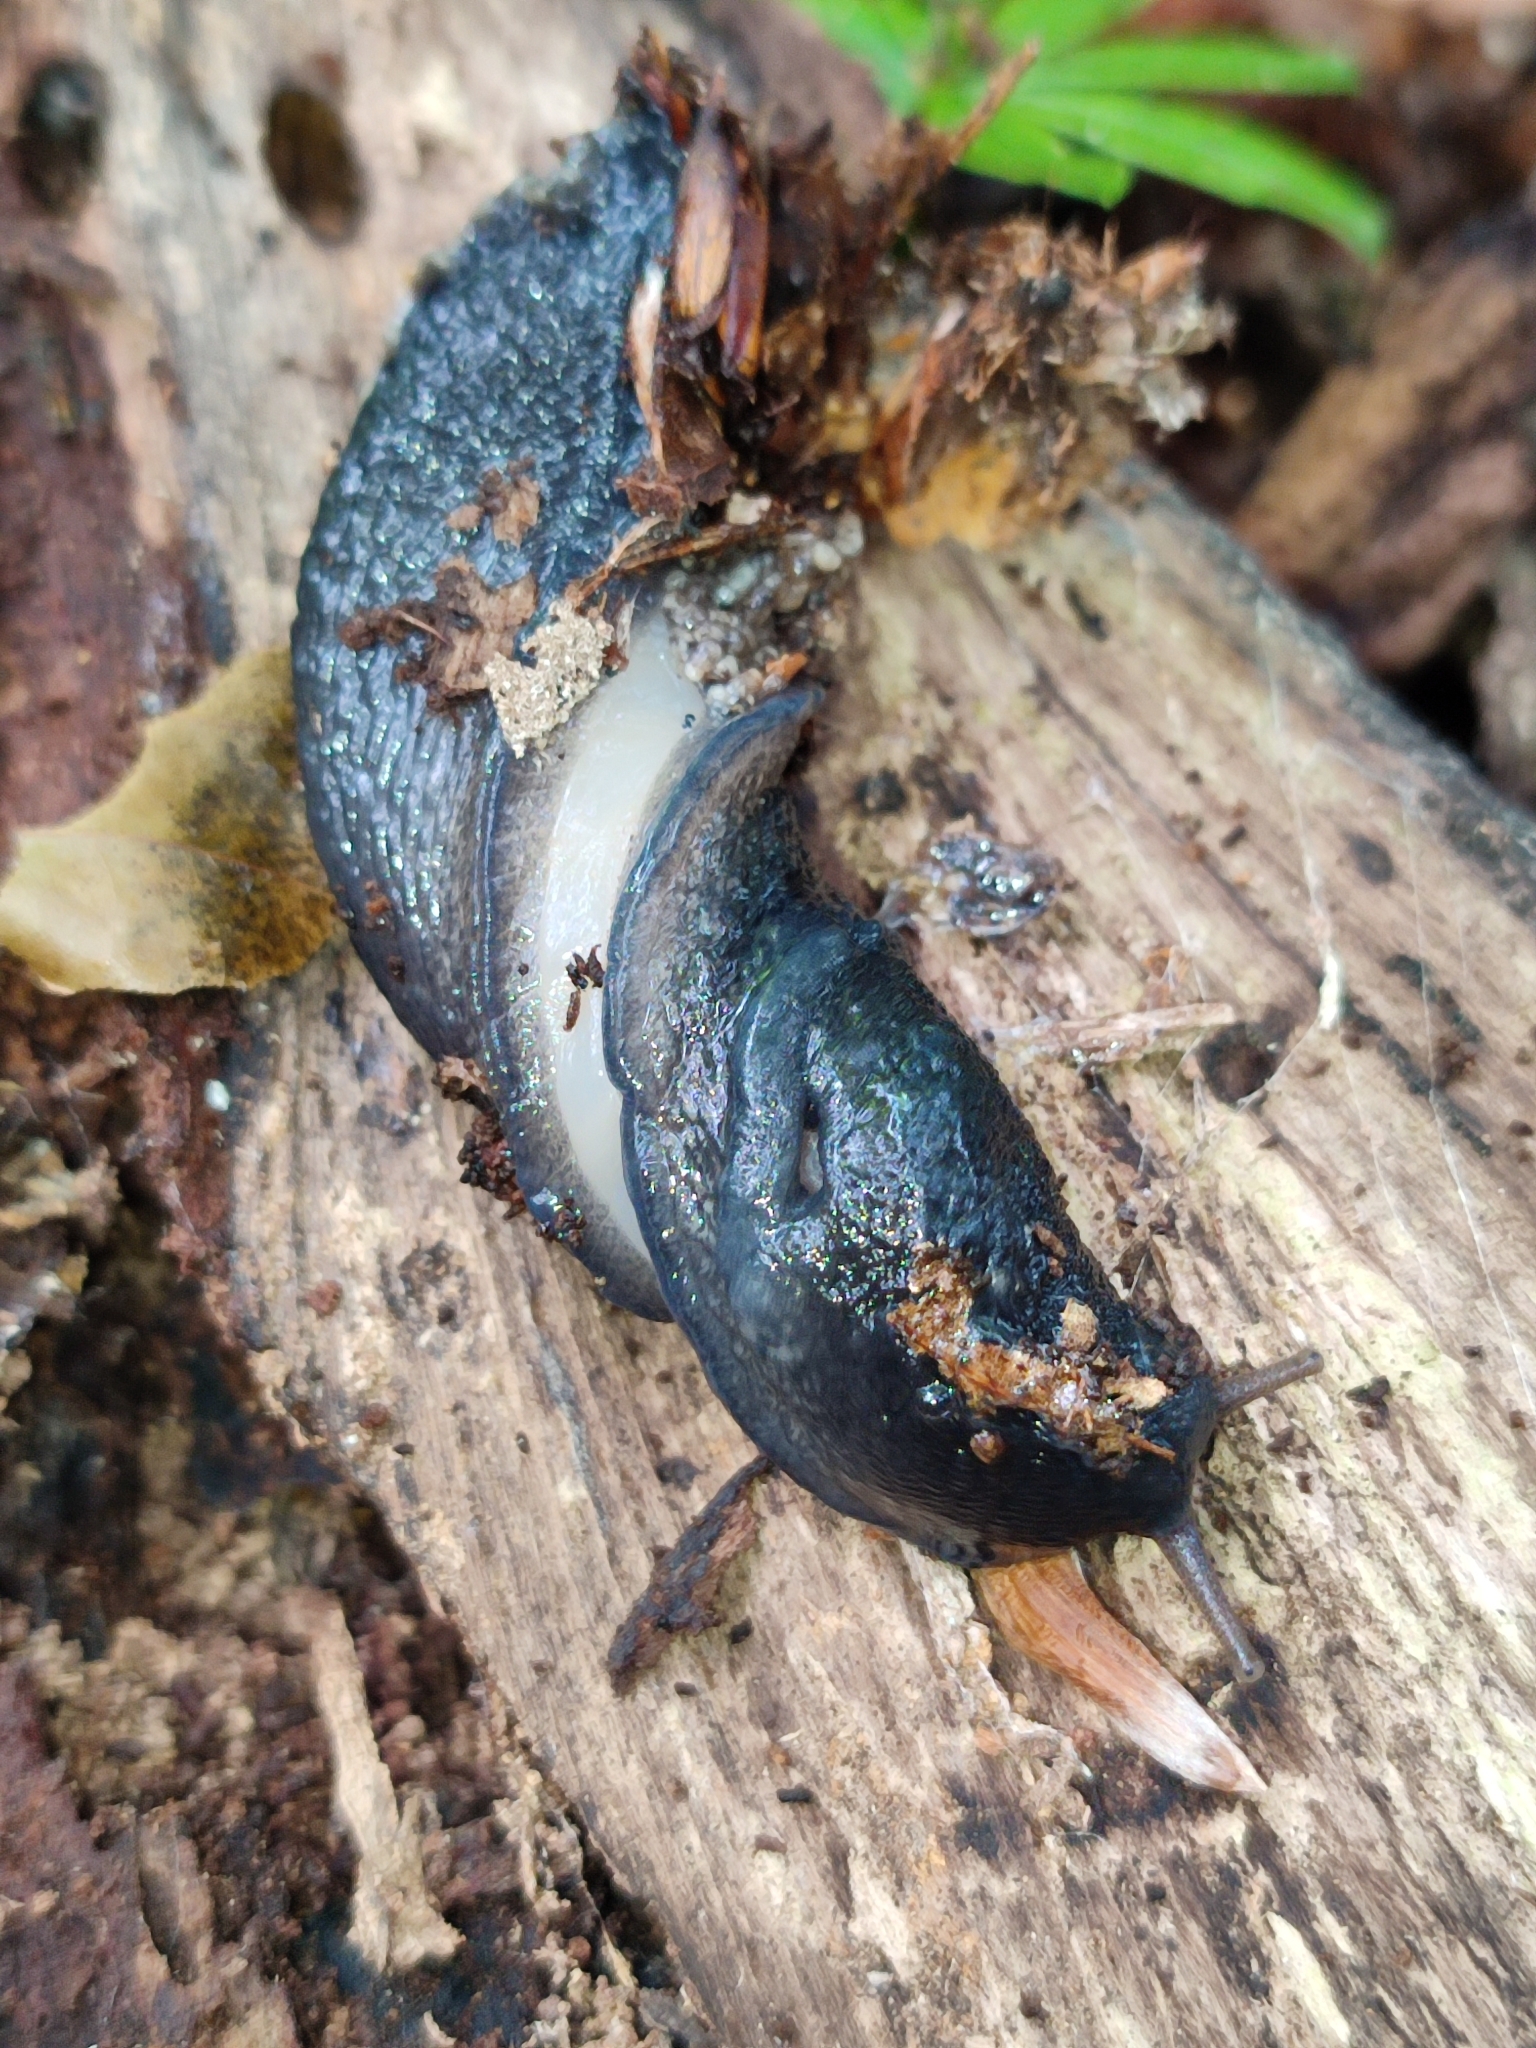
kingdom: Animalia
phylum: Mollusca
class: Gastropoda
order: Stylommatophora
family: Limacidae
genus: Limax
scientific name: Limax cinereoniger
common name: Ash-black slug
